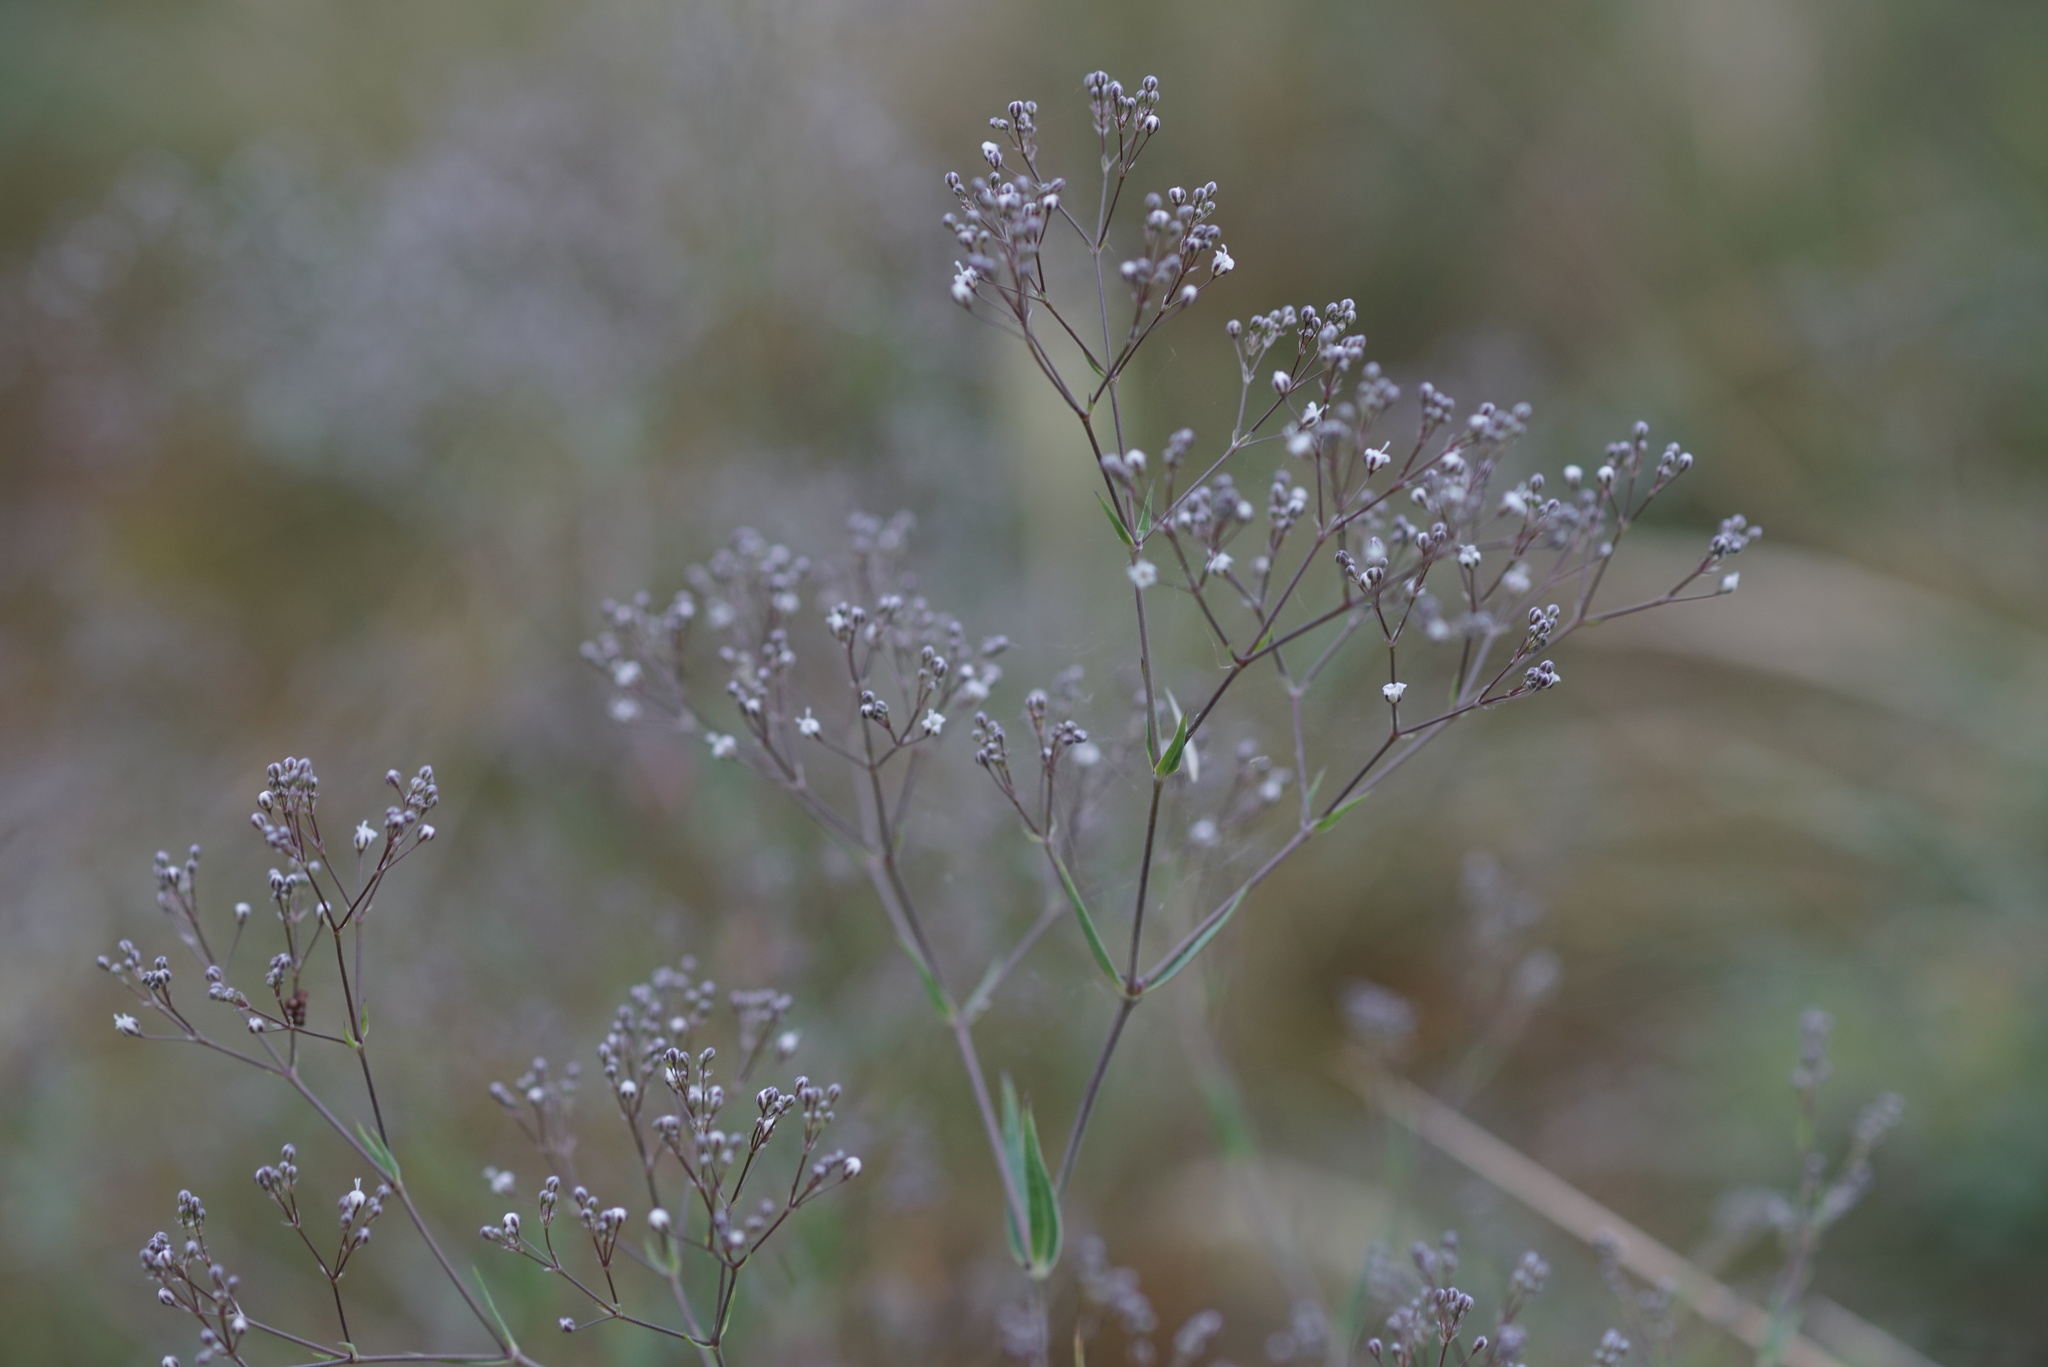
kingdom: Plantae
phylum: Tracheophyta
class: Magnoliopsida
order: Caryophyllales
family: Caryophyllaceae
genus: Gypsophila
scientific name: Gypsophila paniculata
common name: Baby's-breath
